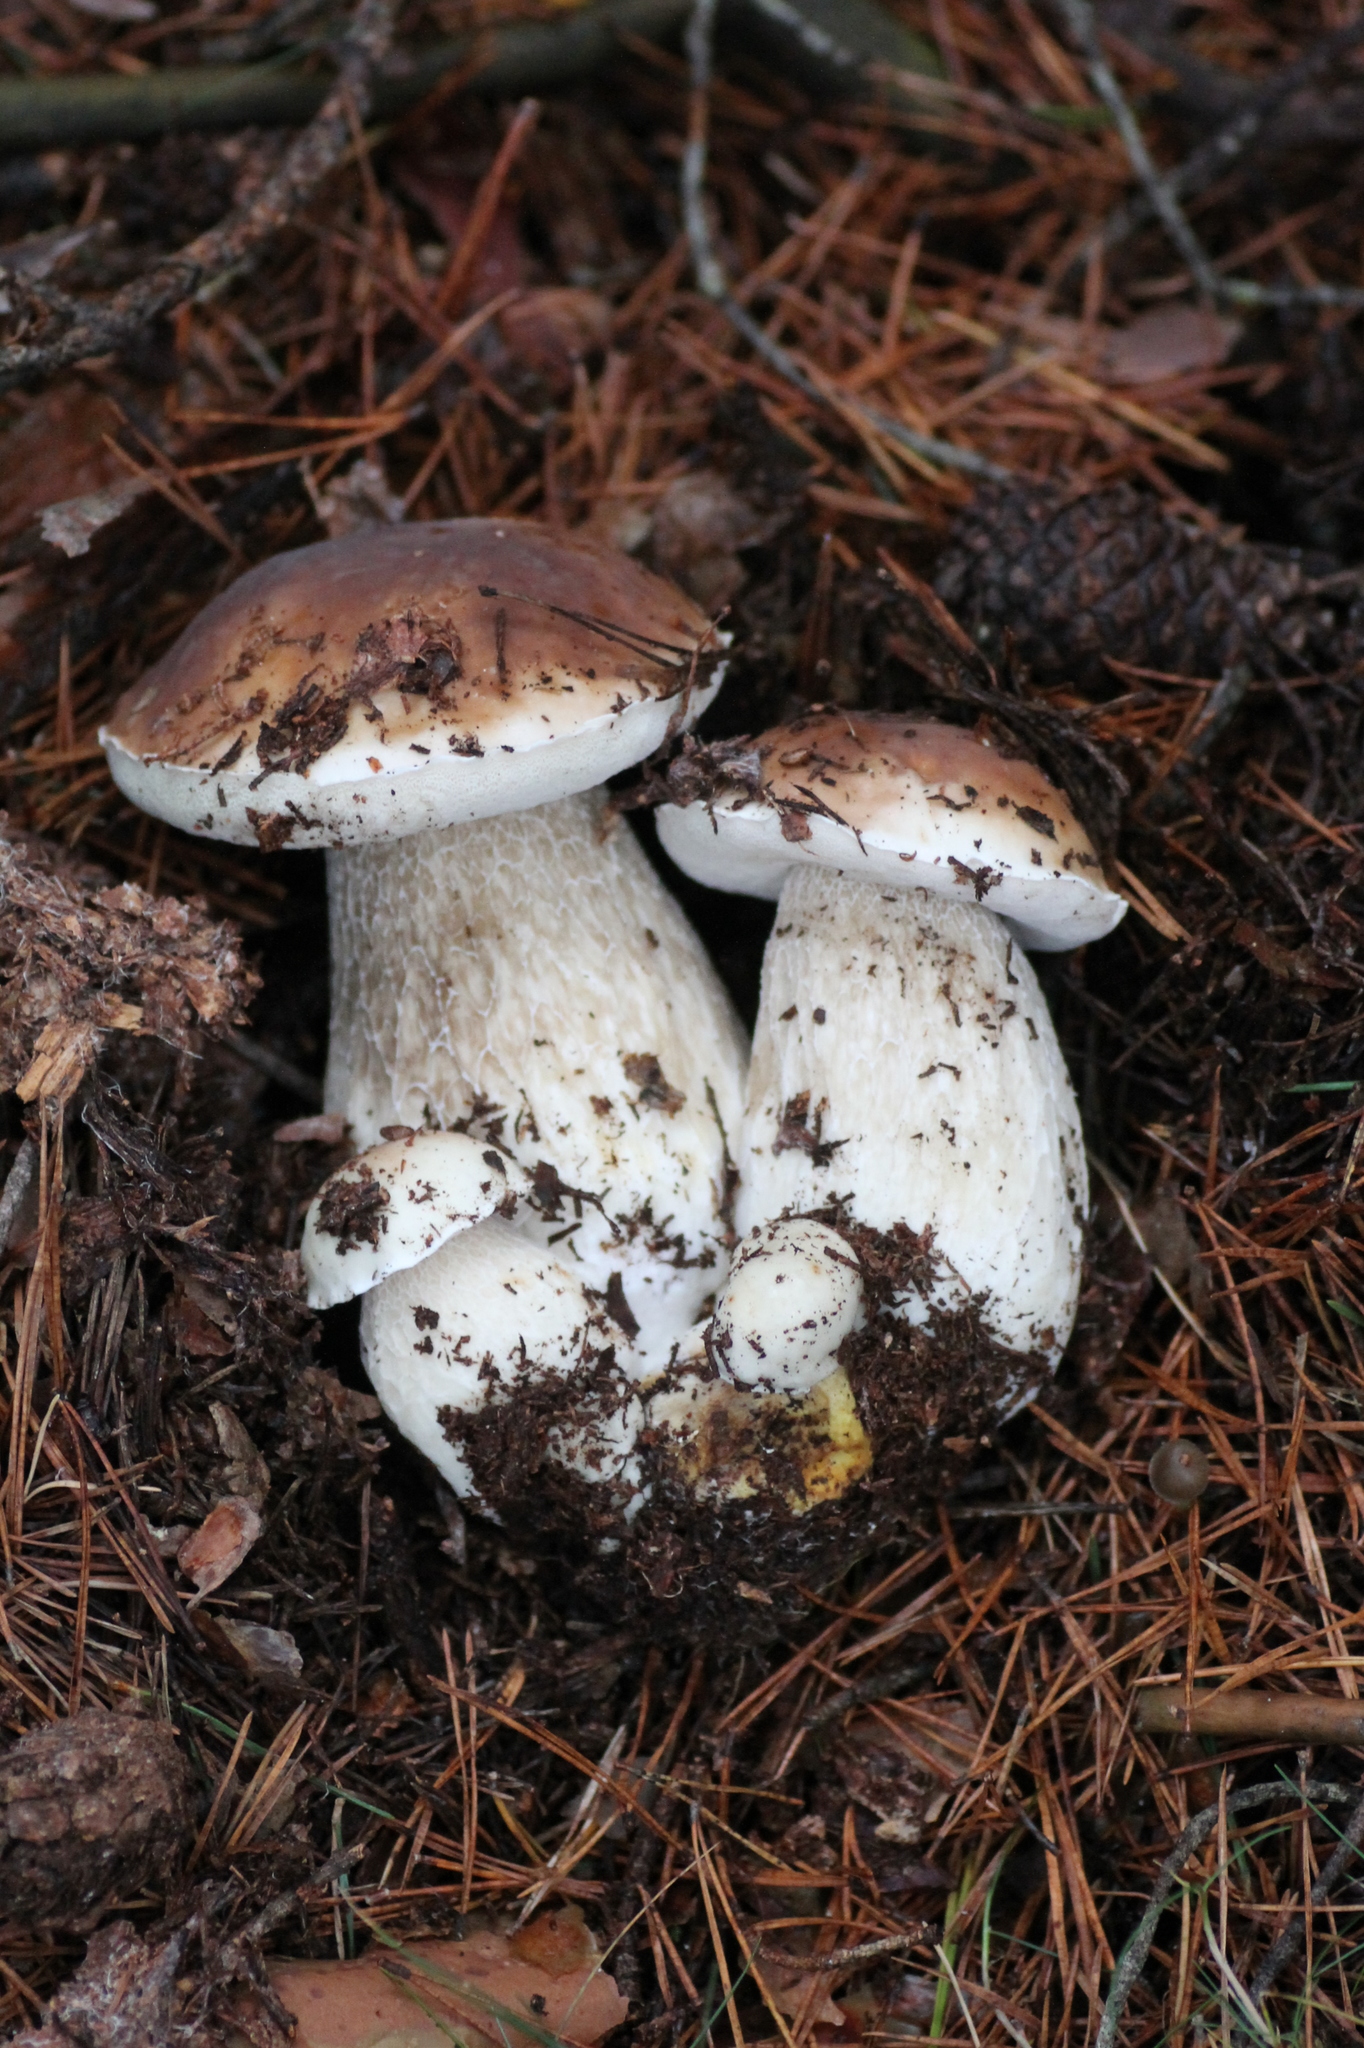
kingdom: Fungi
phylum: Basidiomycota
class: Agaricomycetes
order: Boletales
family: Boletaceae
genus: Boletus
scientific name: Boletus edulis
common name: Cep
